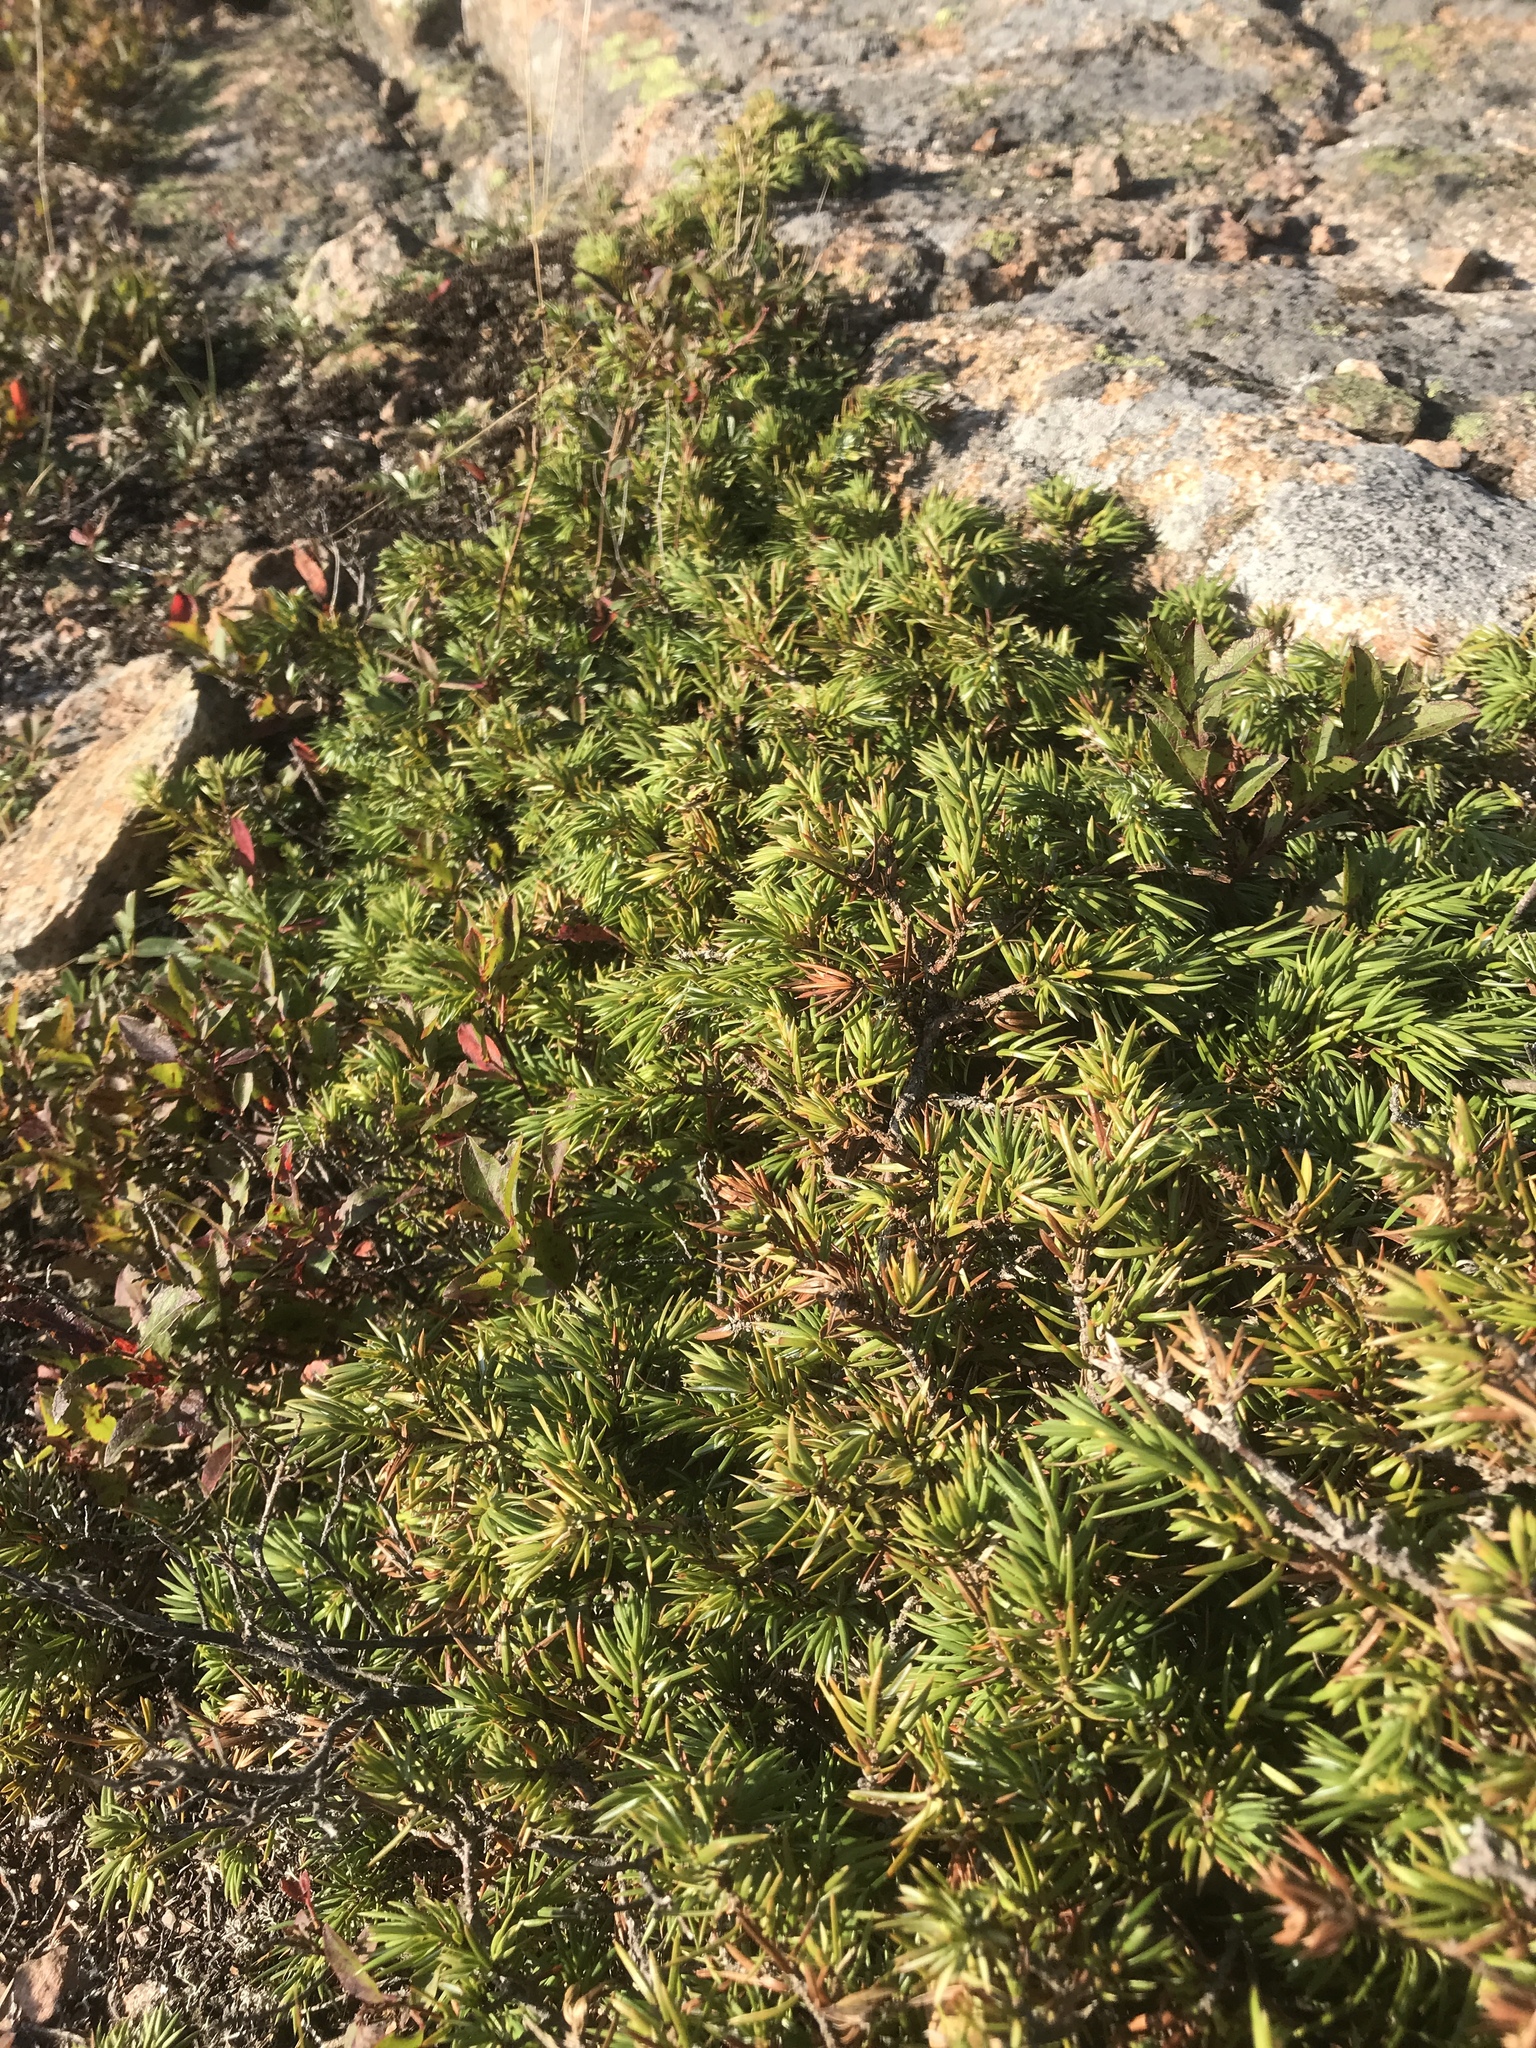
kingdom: Plantae
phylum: Tracheophyta
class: Pinopsida
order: Pinales
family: Cupressaceae
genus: Juniperus
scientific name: Juniperus communis
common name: Common juniper
